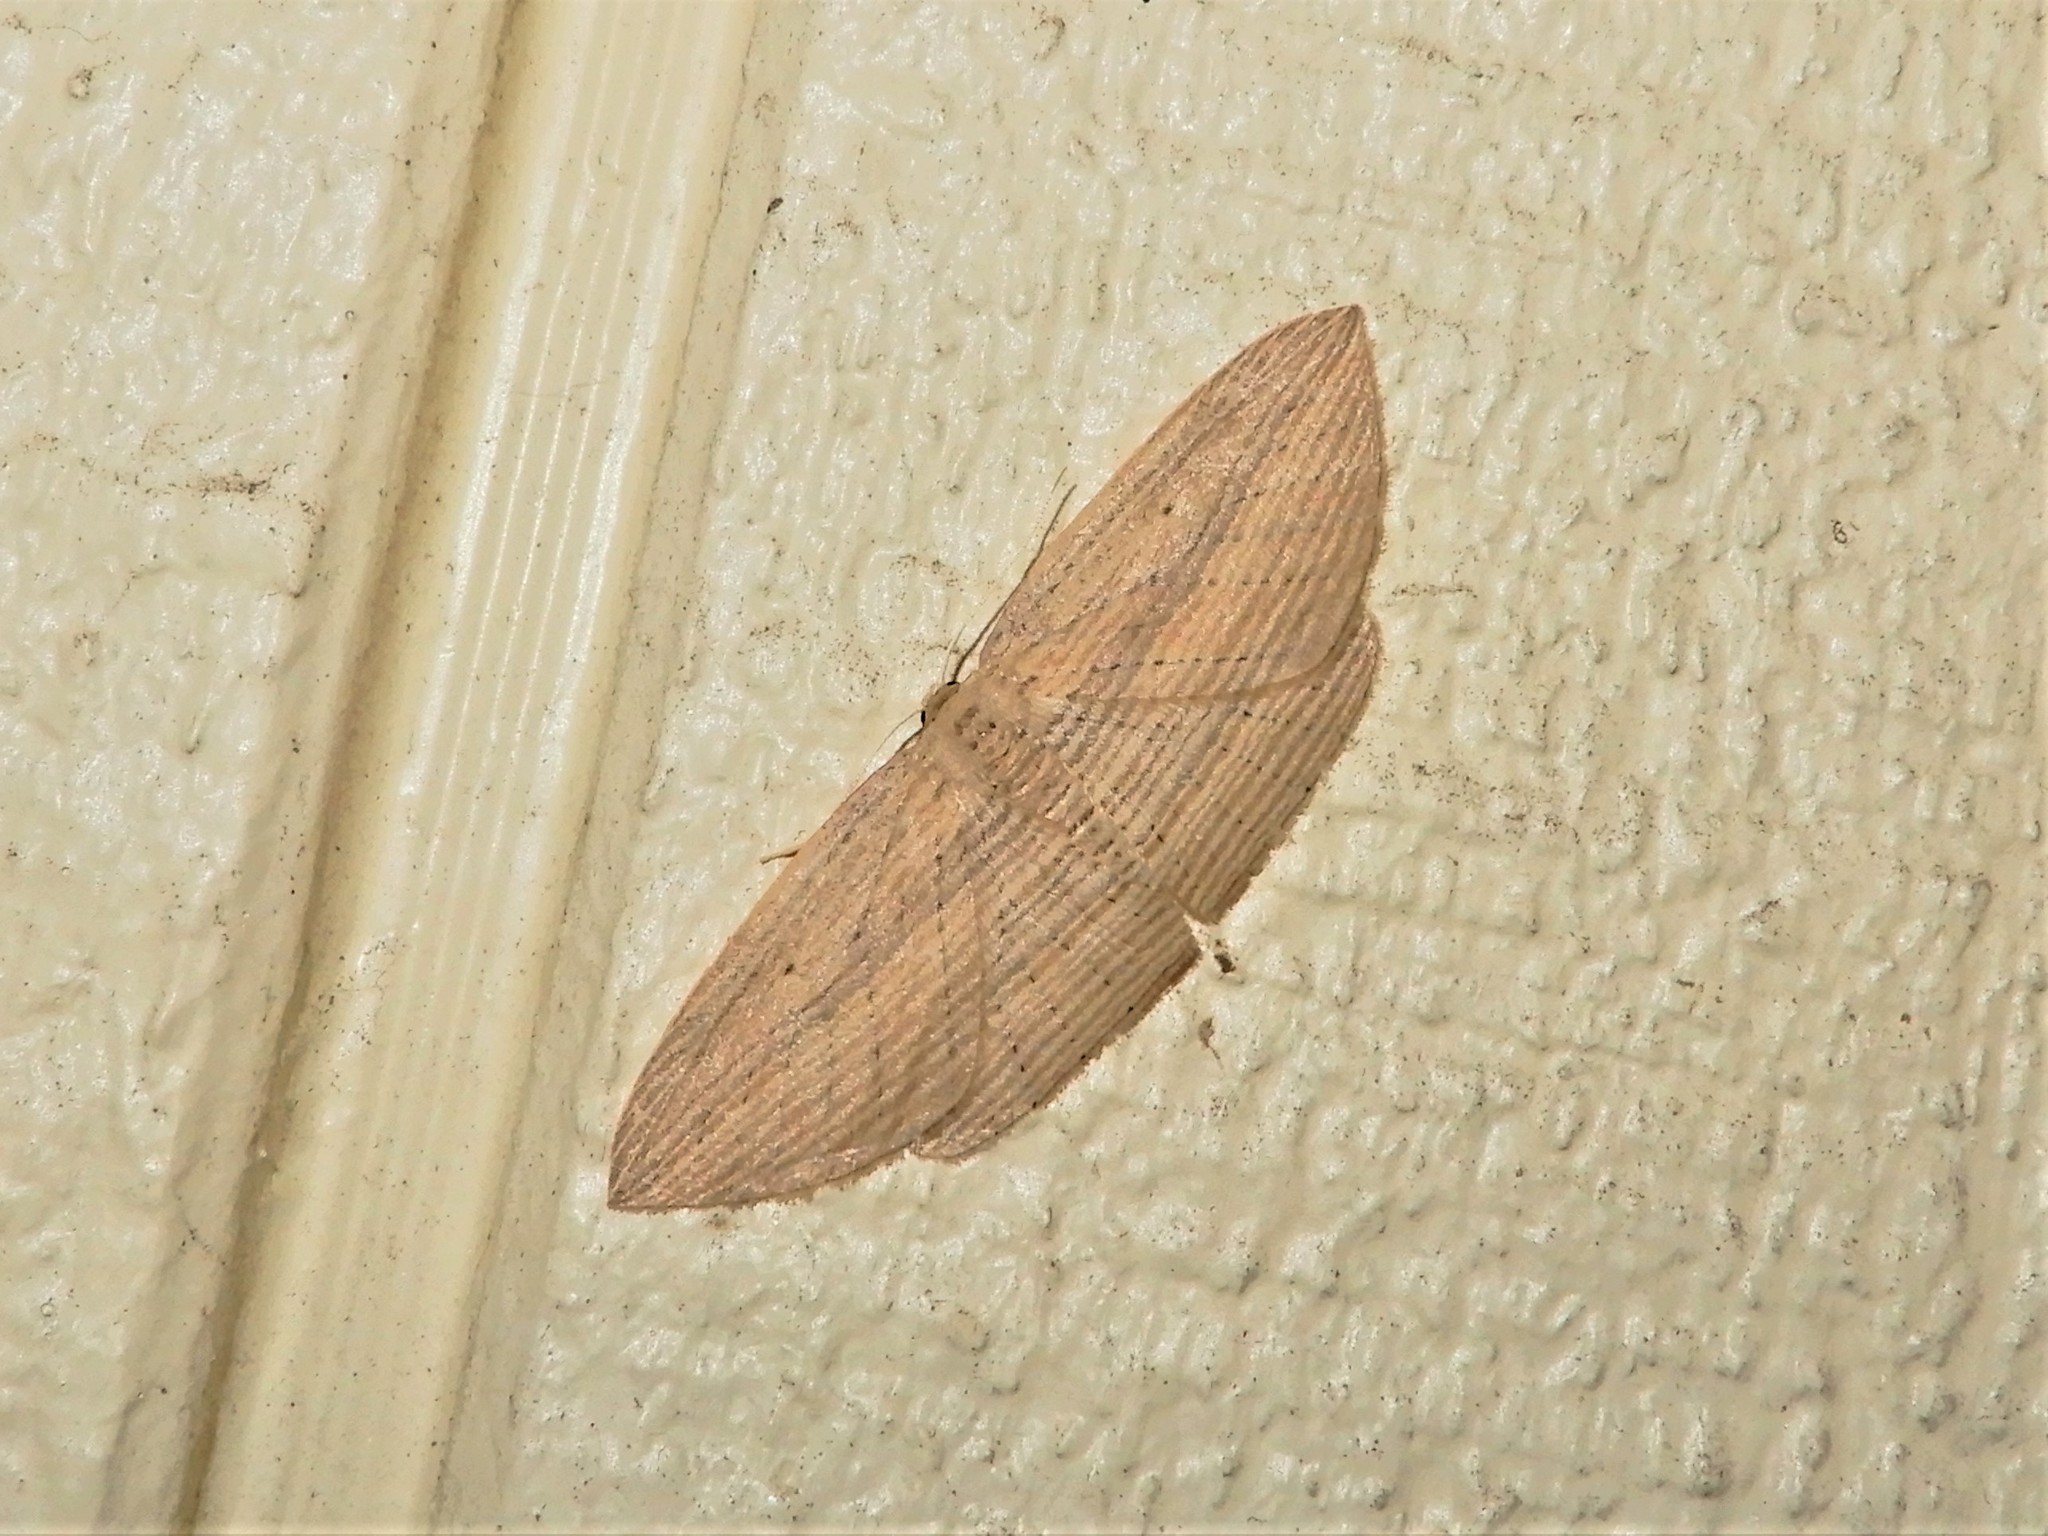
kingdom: Animalia
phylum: Arthropoda
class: Insecta
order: Lepidoptera
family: Geometridae
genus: Epiphryne
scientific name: Epiphryne verriculata
